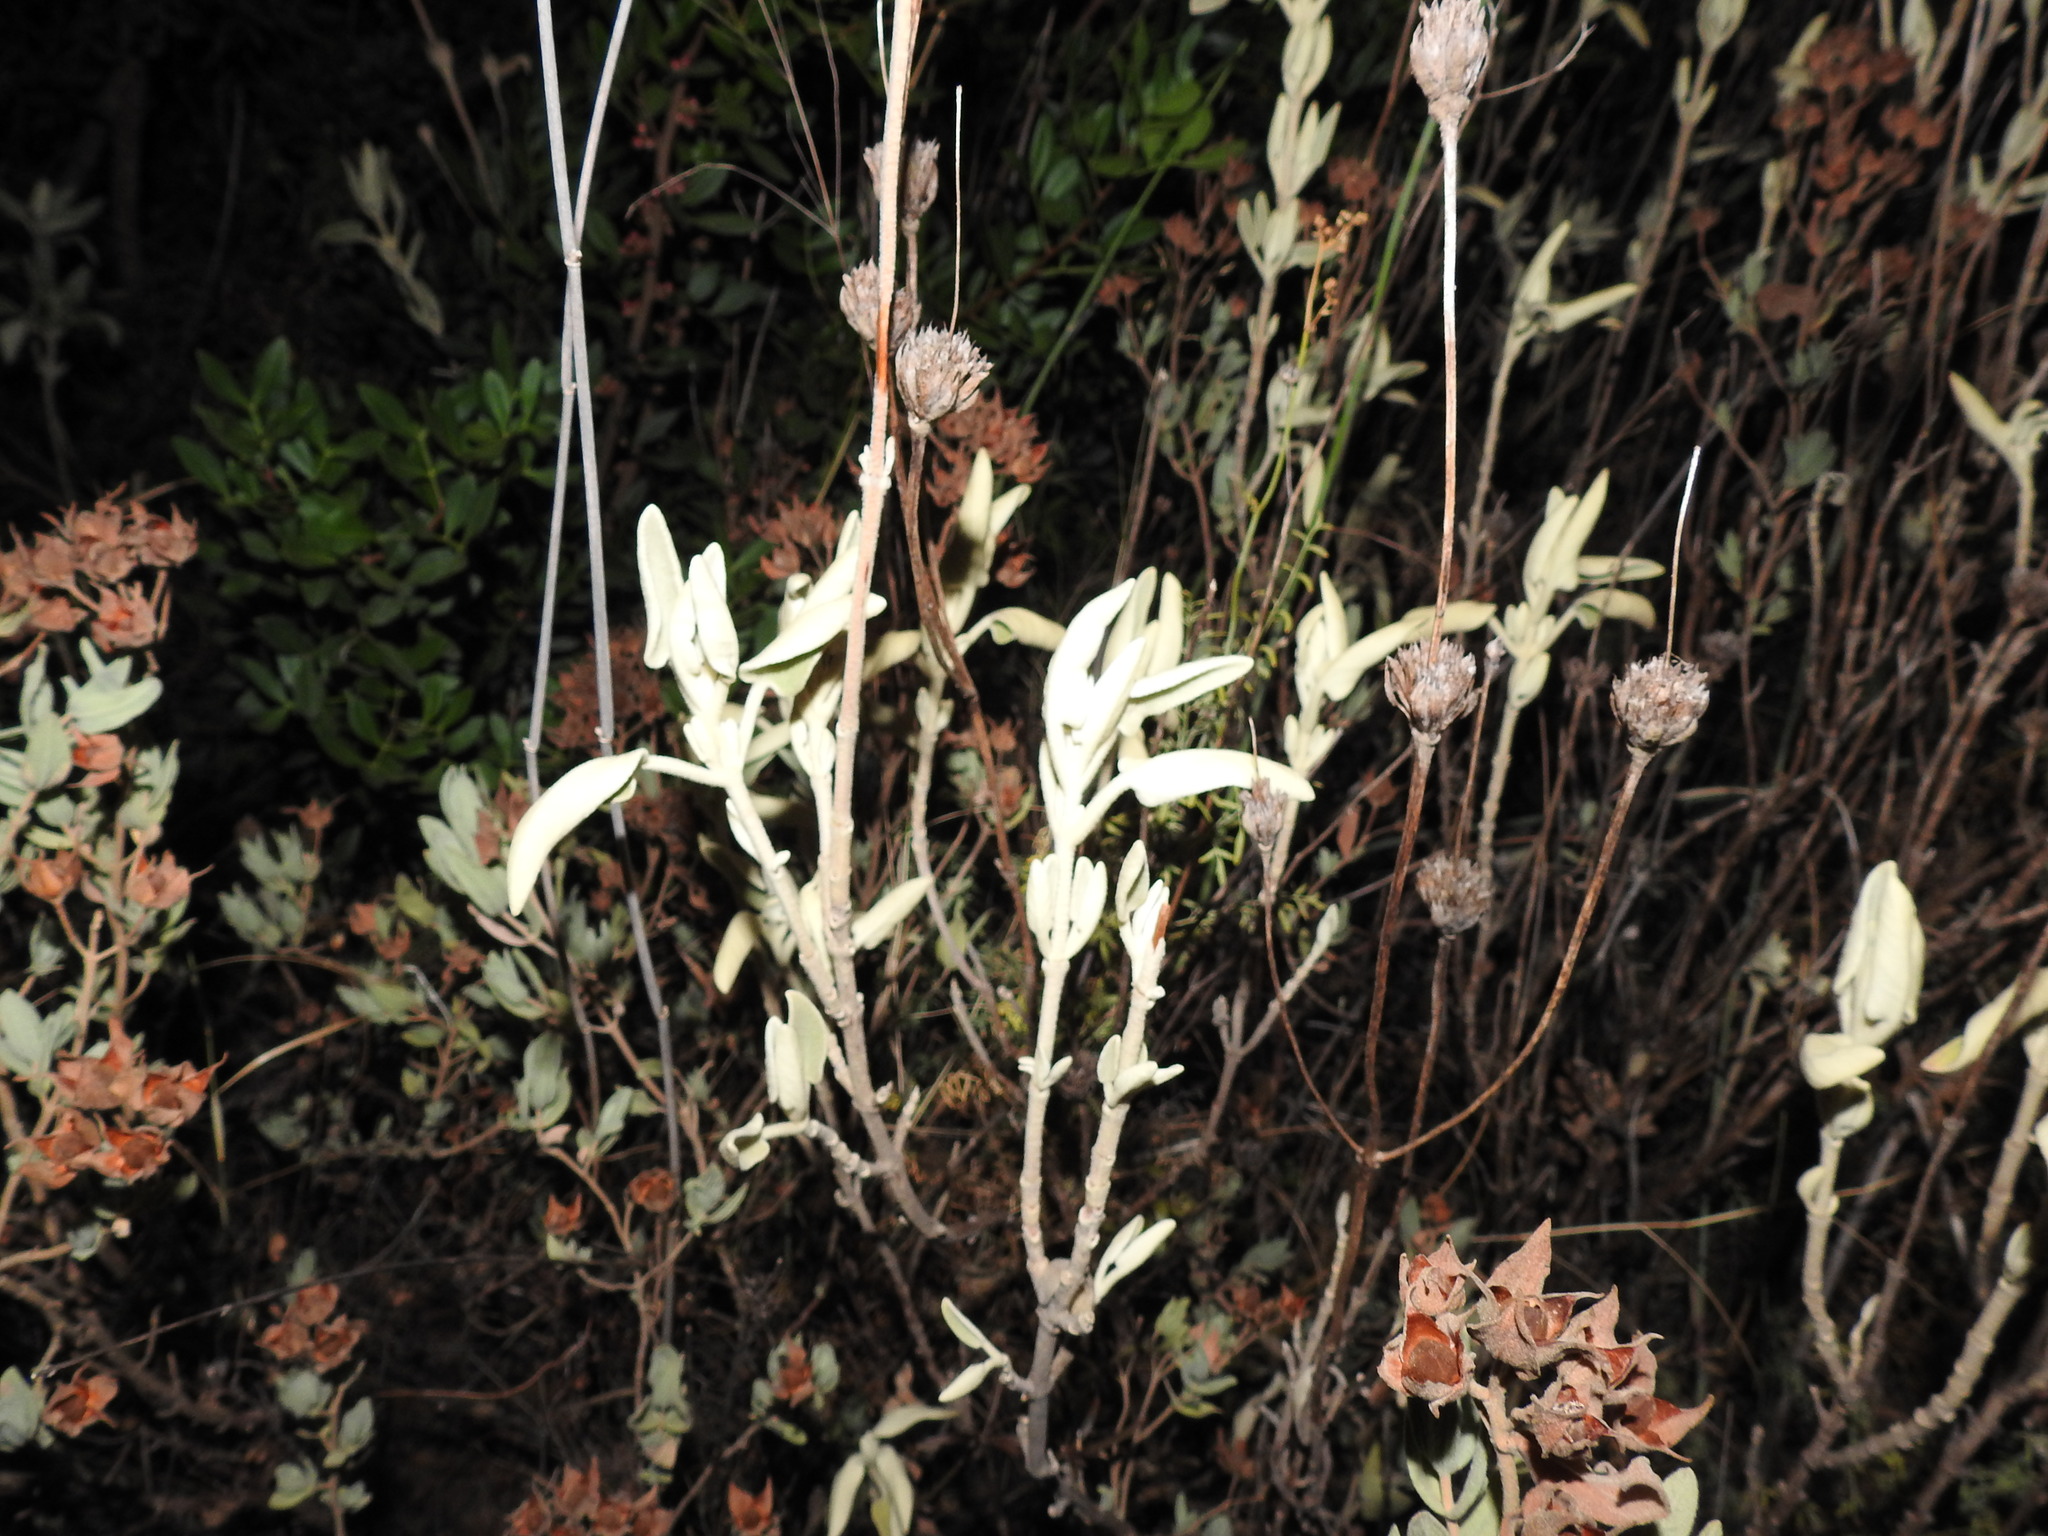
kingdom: Plantae
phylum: Tracheophyta
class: Magnoliopsida
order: Lamiales
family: Lamiaceae
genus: Phlomis
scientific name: Phlomis purpurea
